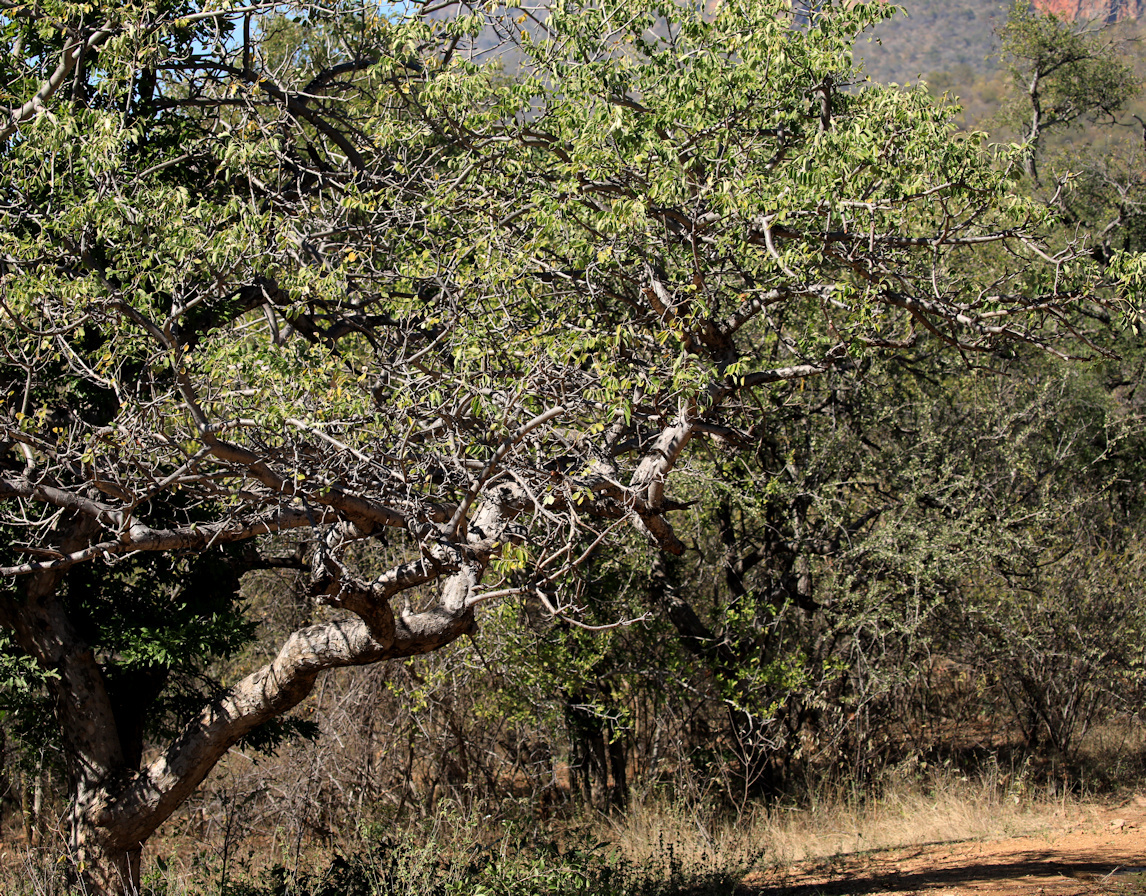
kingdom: Plantae
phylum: Tracheophyta
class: Magnoliopsida
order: Sapindales
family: Anacardiaceae
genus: Sclerocarya
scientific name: Sclerocarya birrea
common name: Marula
